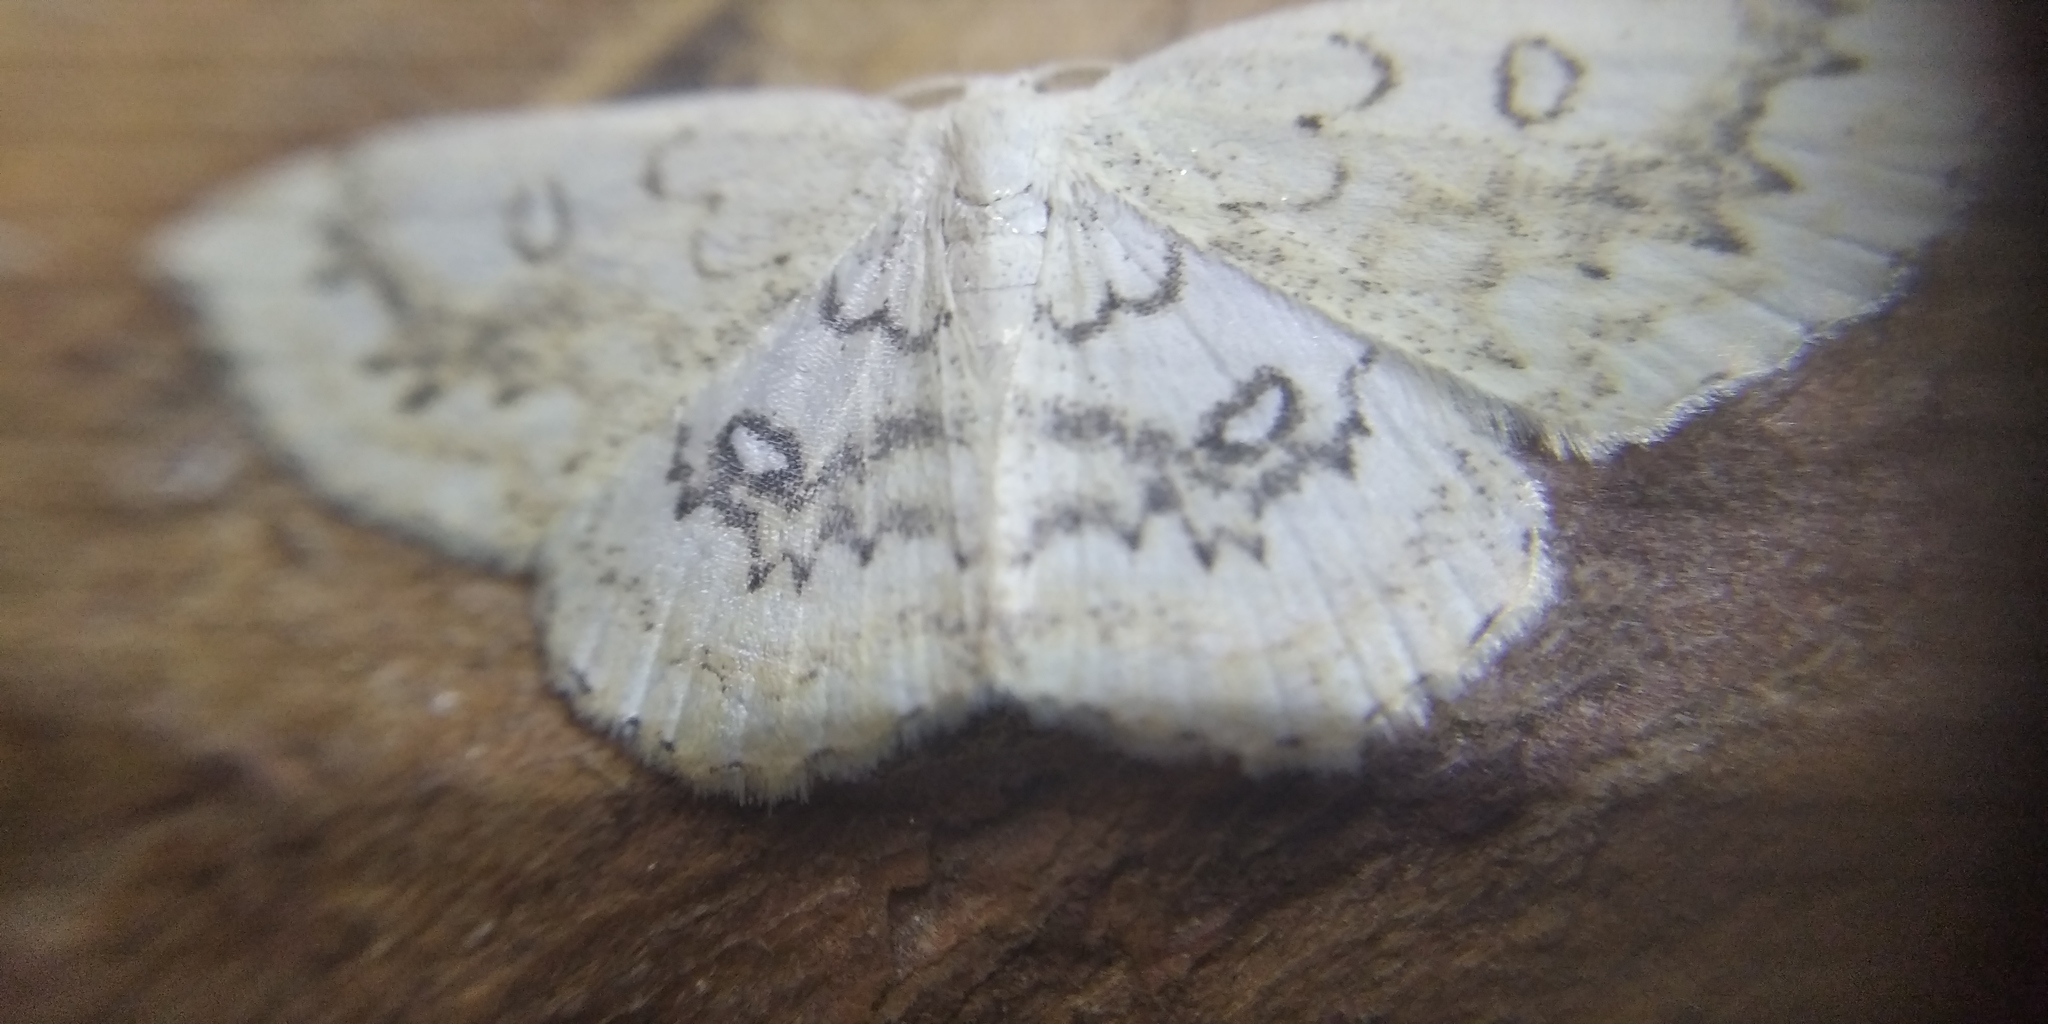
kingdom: Animalia
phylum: Arthropoda
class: Insecta
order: Lepidoptera
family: Geometridae
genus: Cyclophora
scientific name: Cyclophora annularia
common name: Mocha
